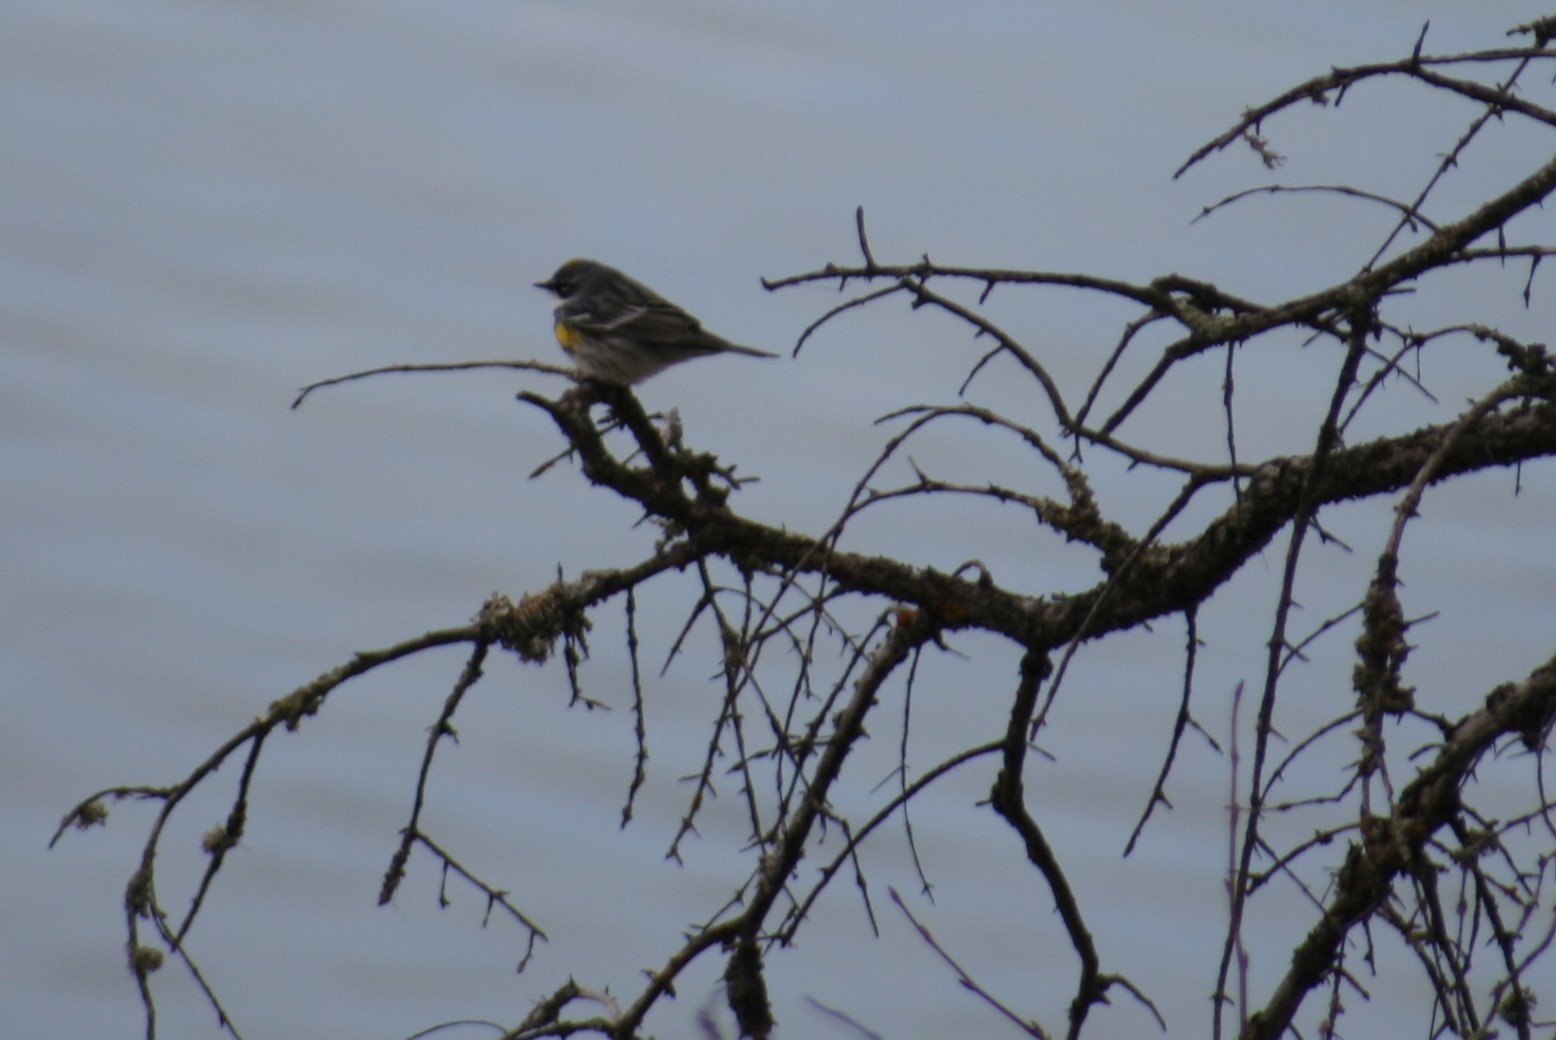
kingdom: Animalia
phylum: Chordata
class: Aves
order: Passeriformes
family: Parulidae
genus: Setophaga
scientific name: Setophaga coronata
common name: Myrtle warbler
